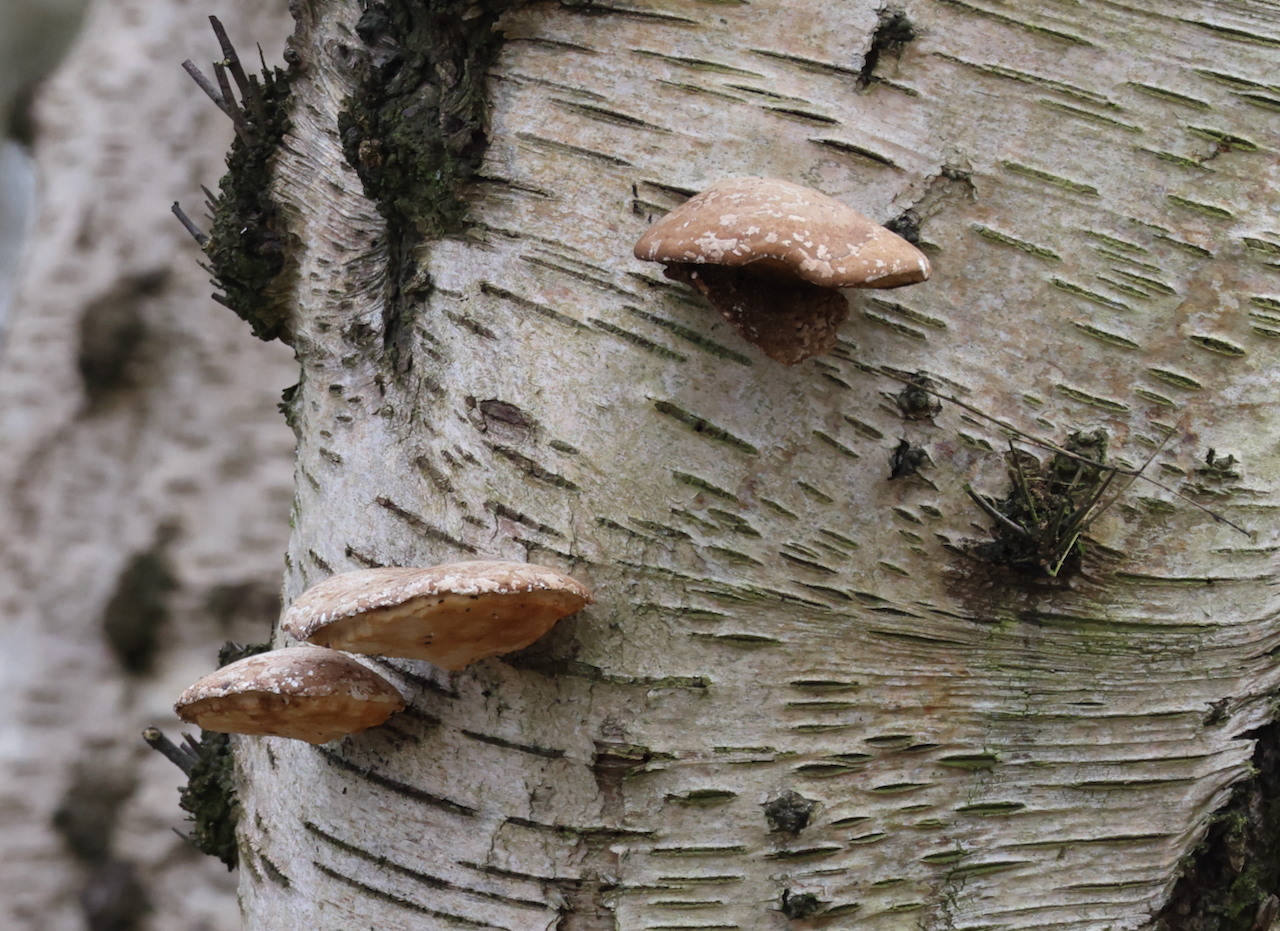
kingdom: Fungi
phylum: Basidiomycota
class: Agaricomycetes
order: Polyporales
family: Fomitopsidaceae
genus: Fomitopsis
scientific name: Fomitopsis betulina
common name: Birch polypore
